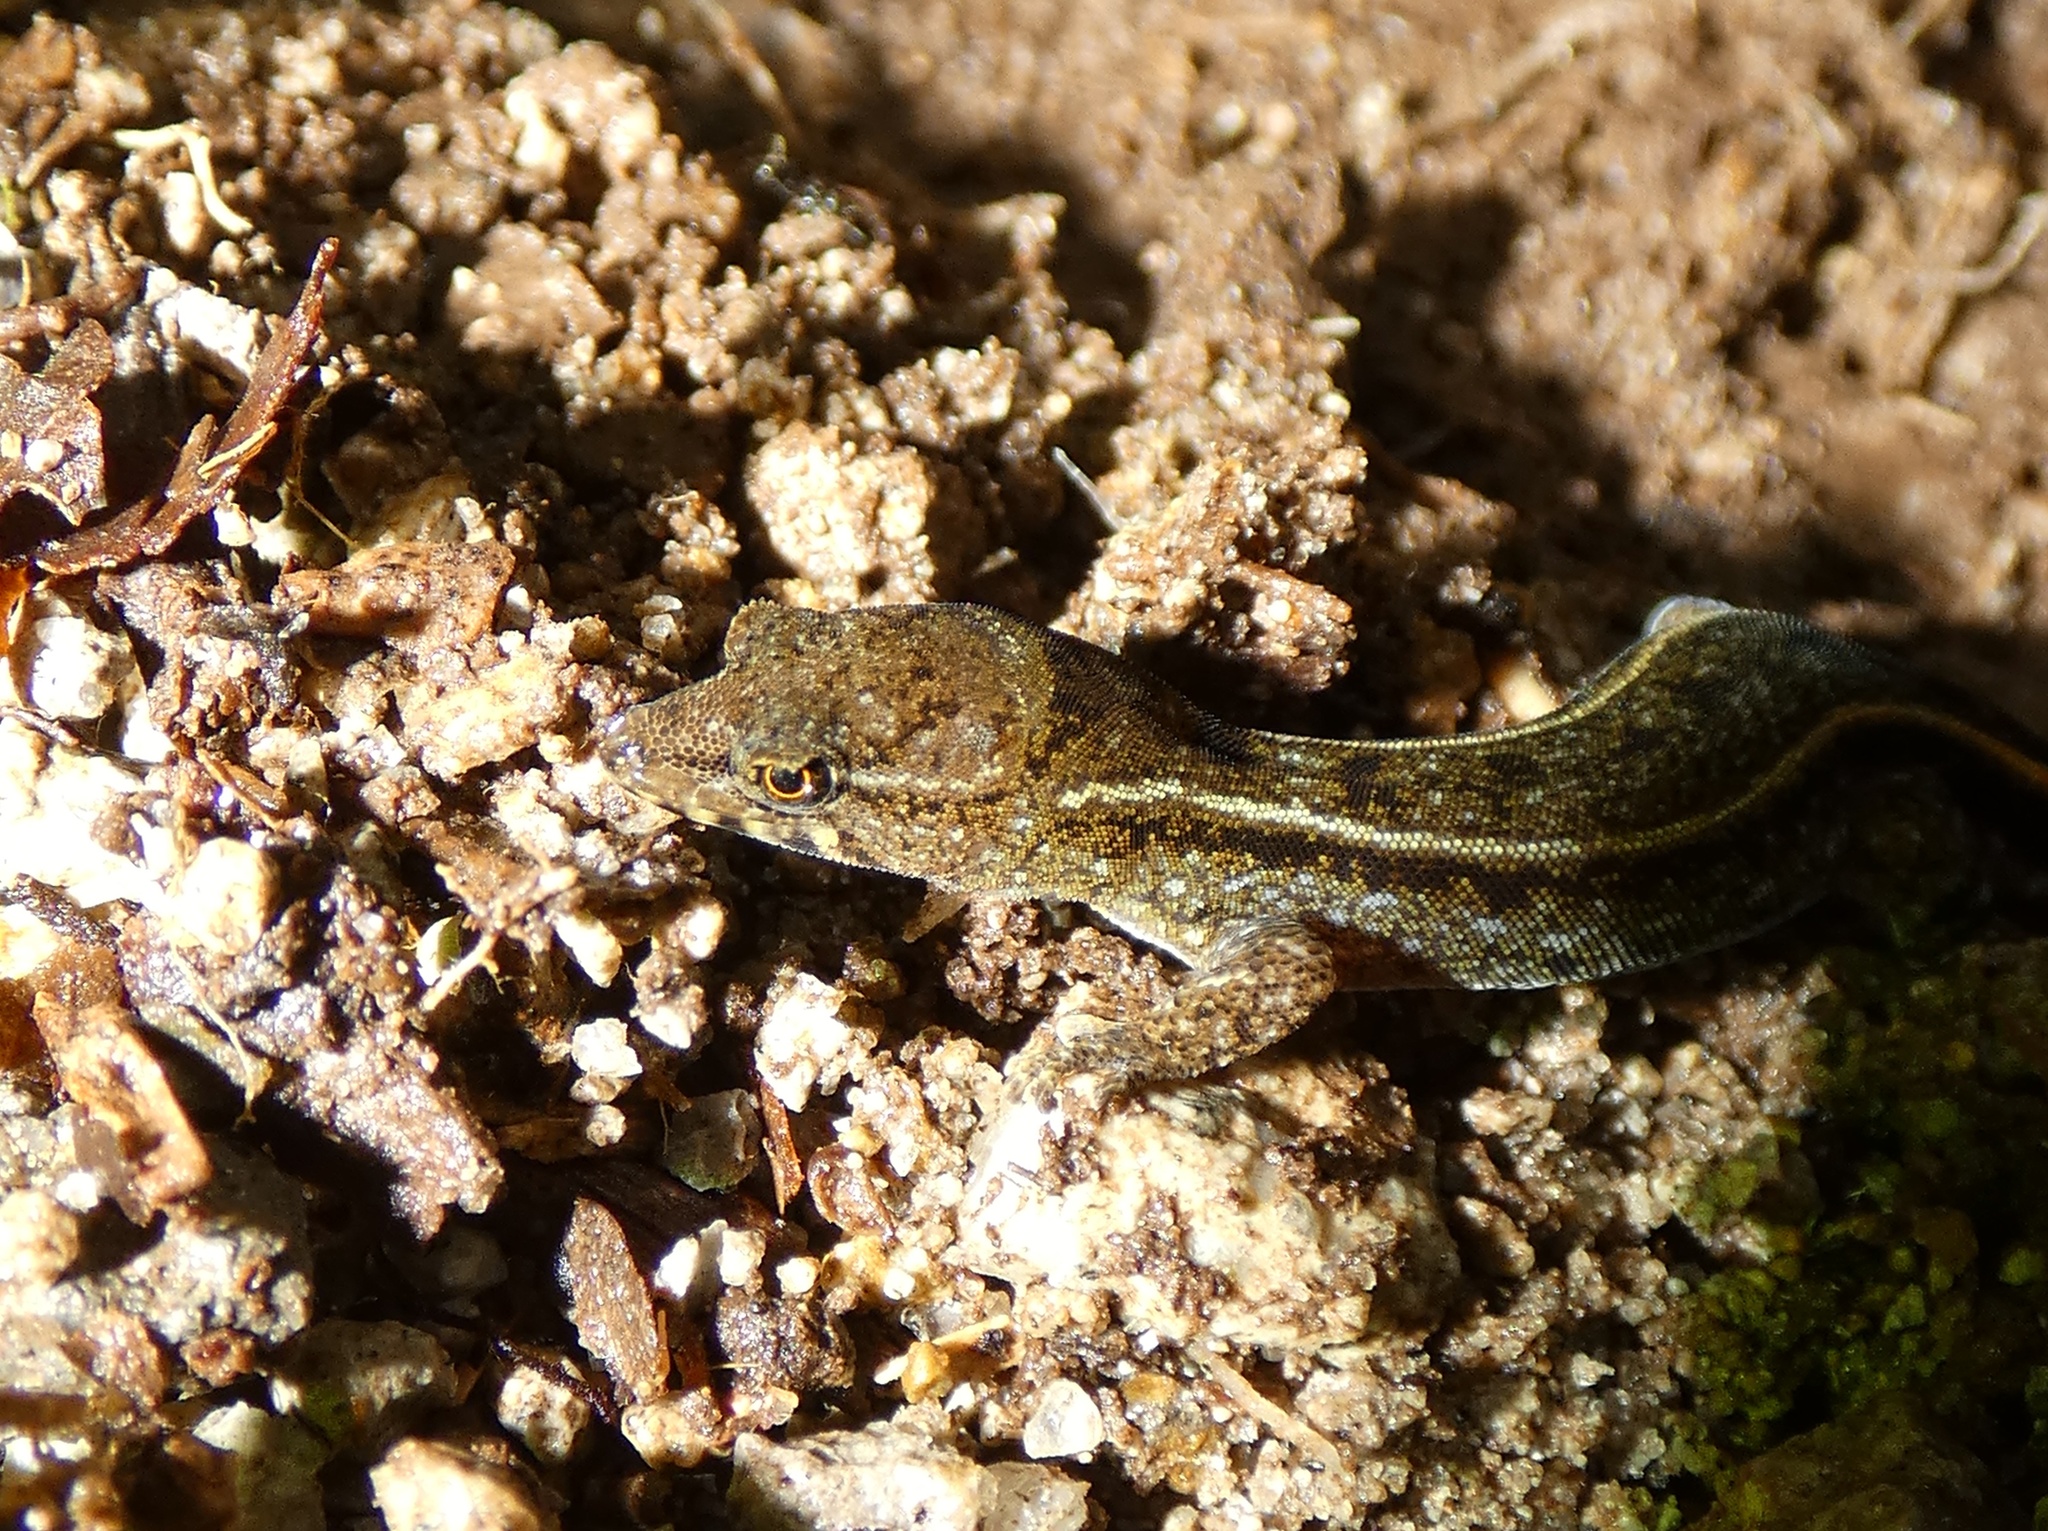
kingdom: Animalia
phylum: Chordata
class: Squamata
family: Sphaerodactylidae
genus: Lepidoblepharis
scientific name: Lepidoblepharis xanthostigma
